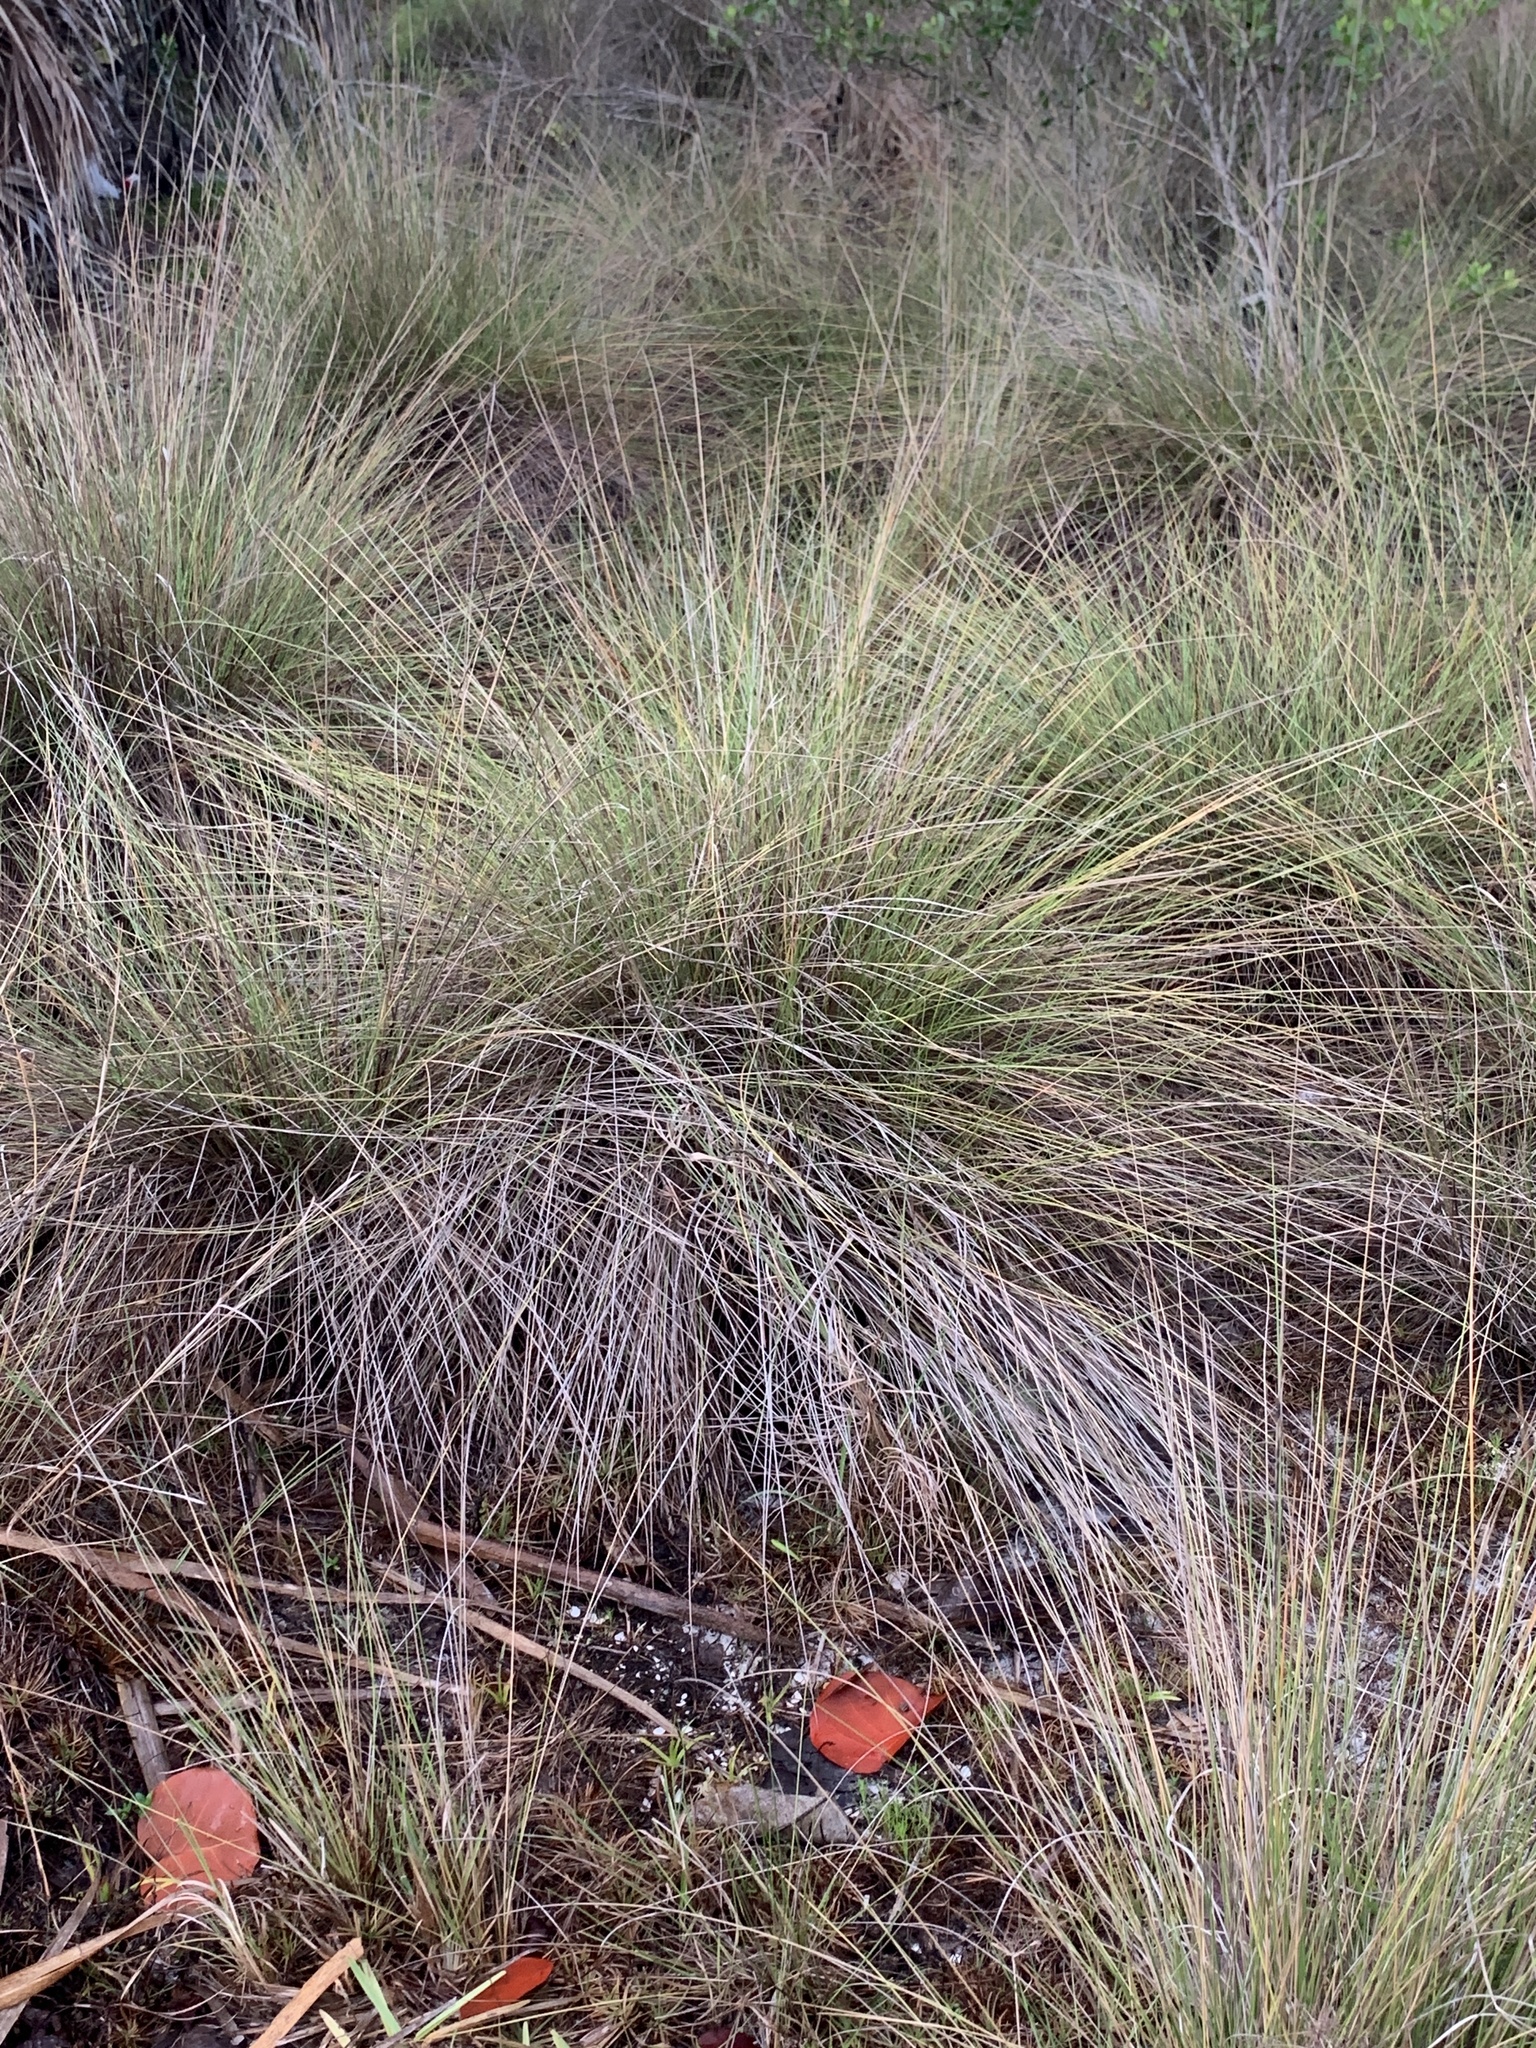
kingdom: Plantae
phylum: Tracheophyta
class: Liliopsida
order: Poales
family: Poaceae
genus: Muhlenbergia
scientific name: Muhlenbergia capillaris
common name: Purple grass
